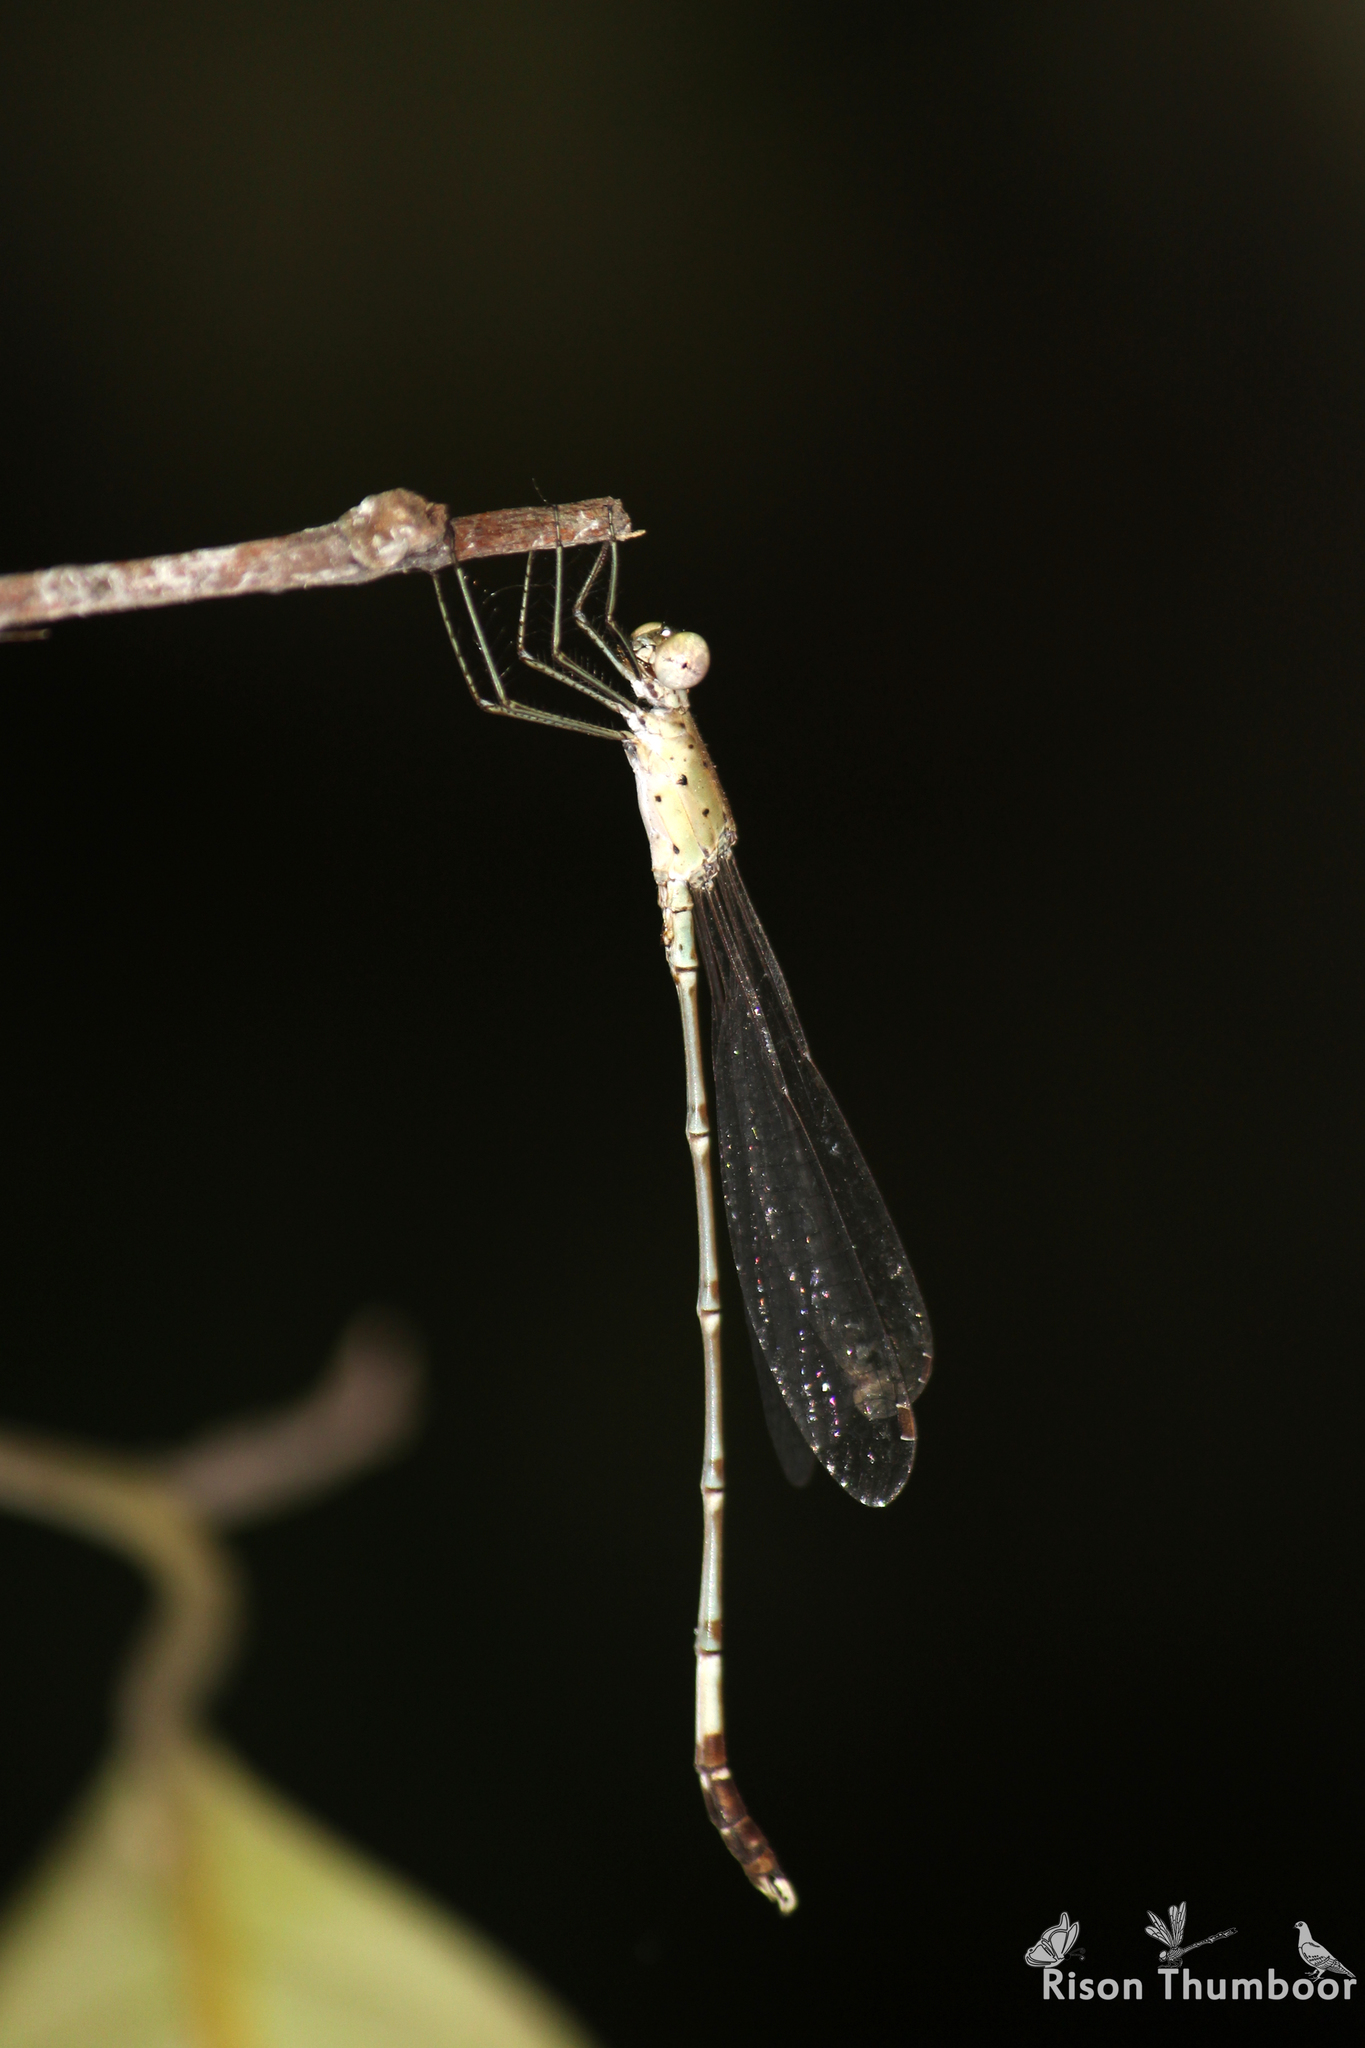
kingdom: Animalia
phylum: Arthropoda
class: Insecta
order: Odonata
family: Lestidae
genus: Platylestes
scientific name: Platylestes platystylus
